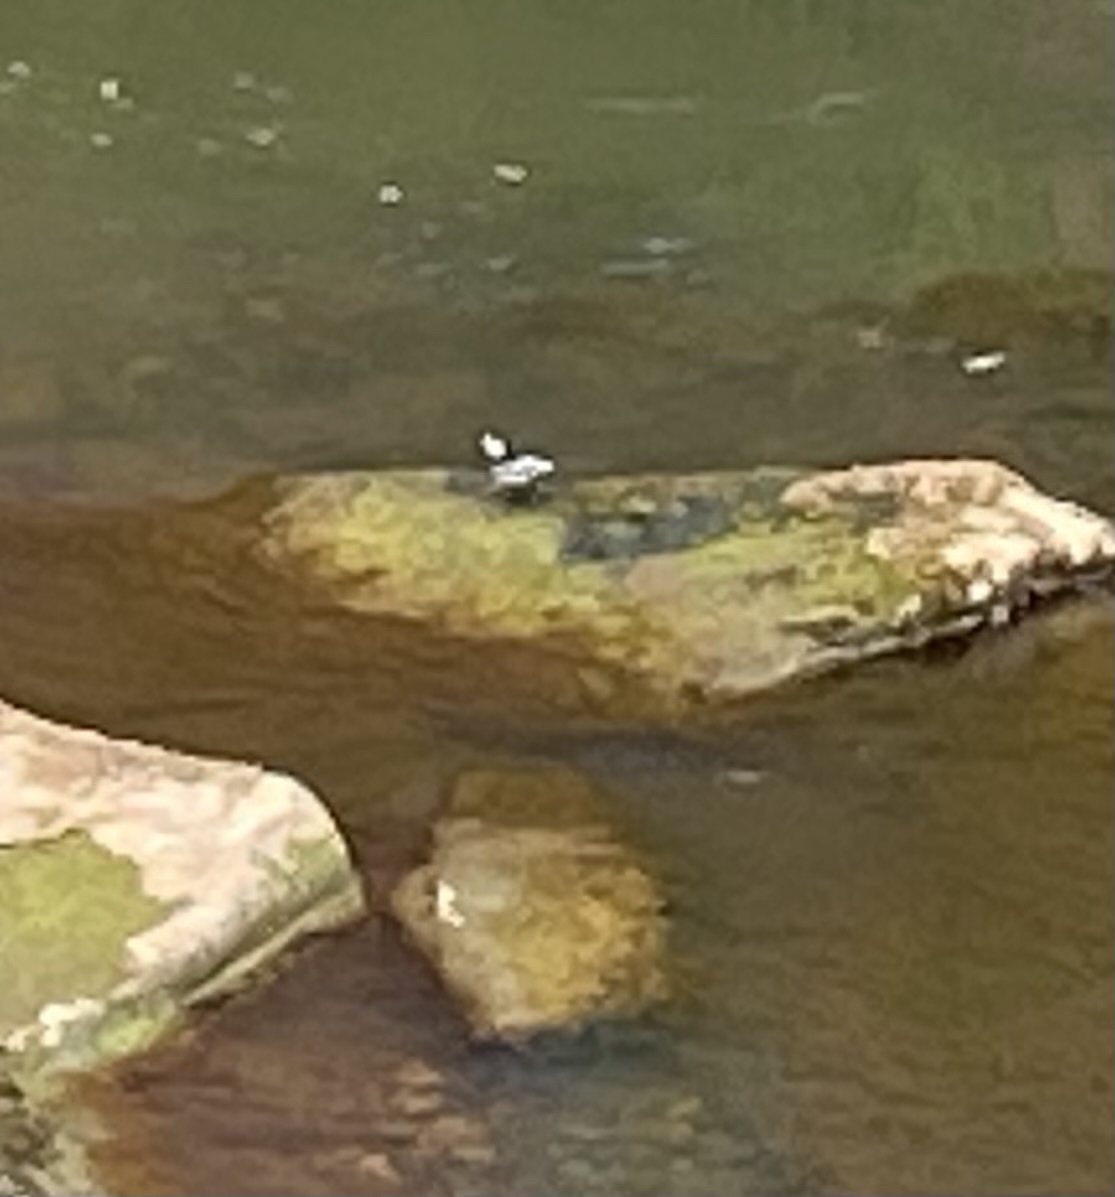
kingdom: Animalia
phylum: Chordata
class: Aves
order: Passeriformes
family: Motacillidae
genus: Motacilla
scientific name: Motacilla alba
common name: White wagtail
